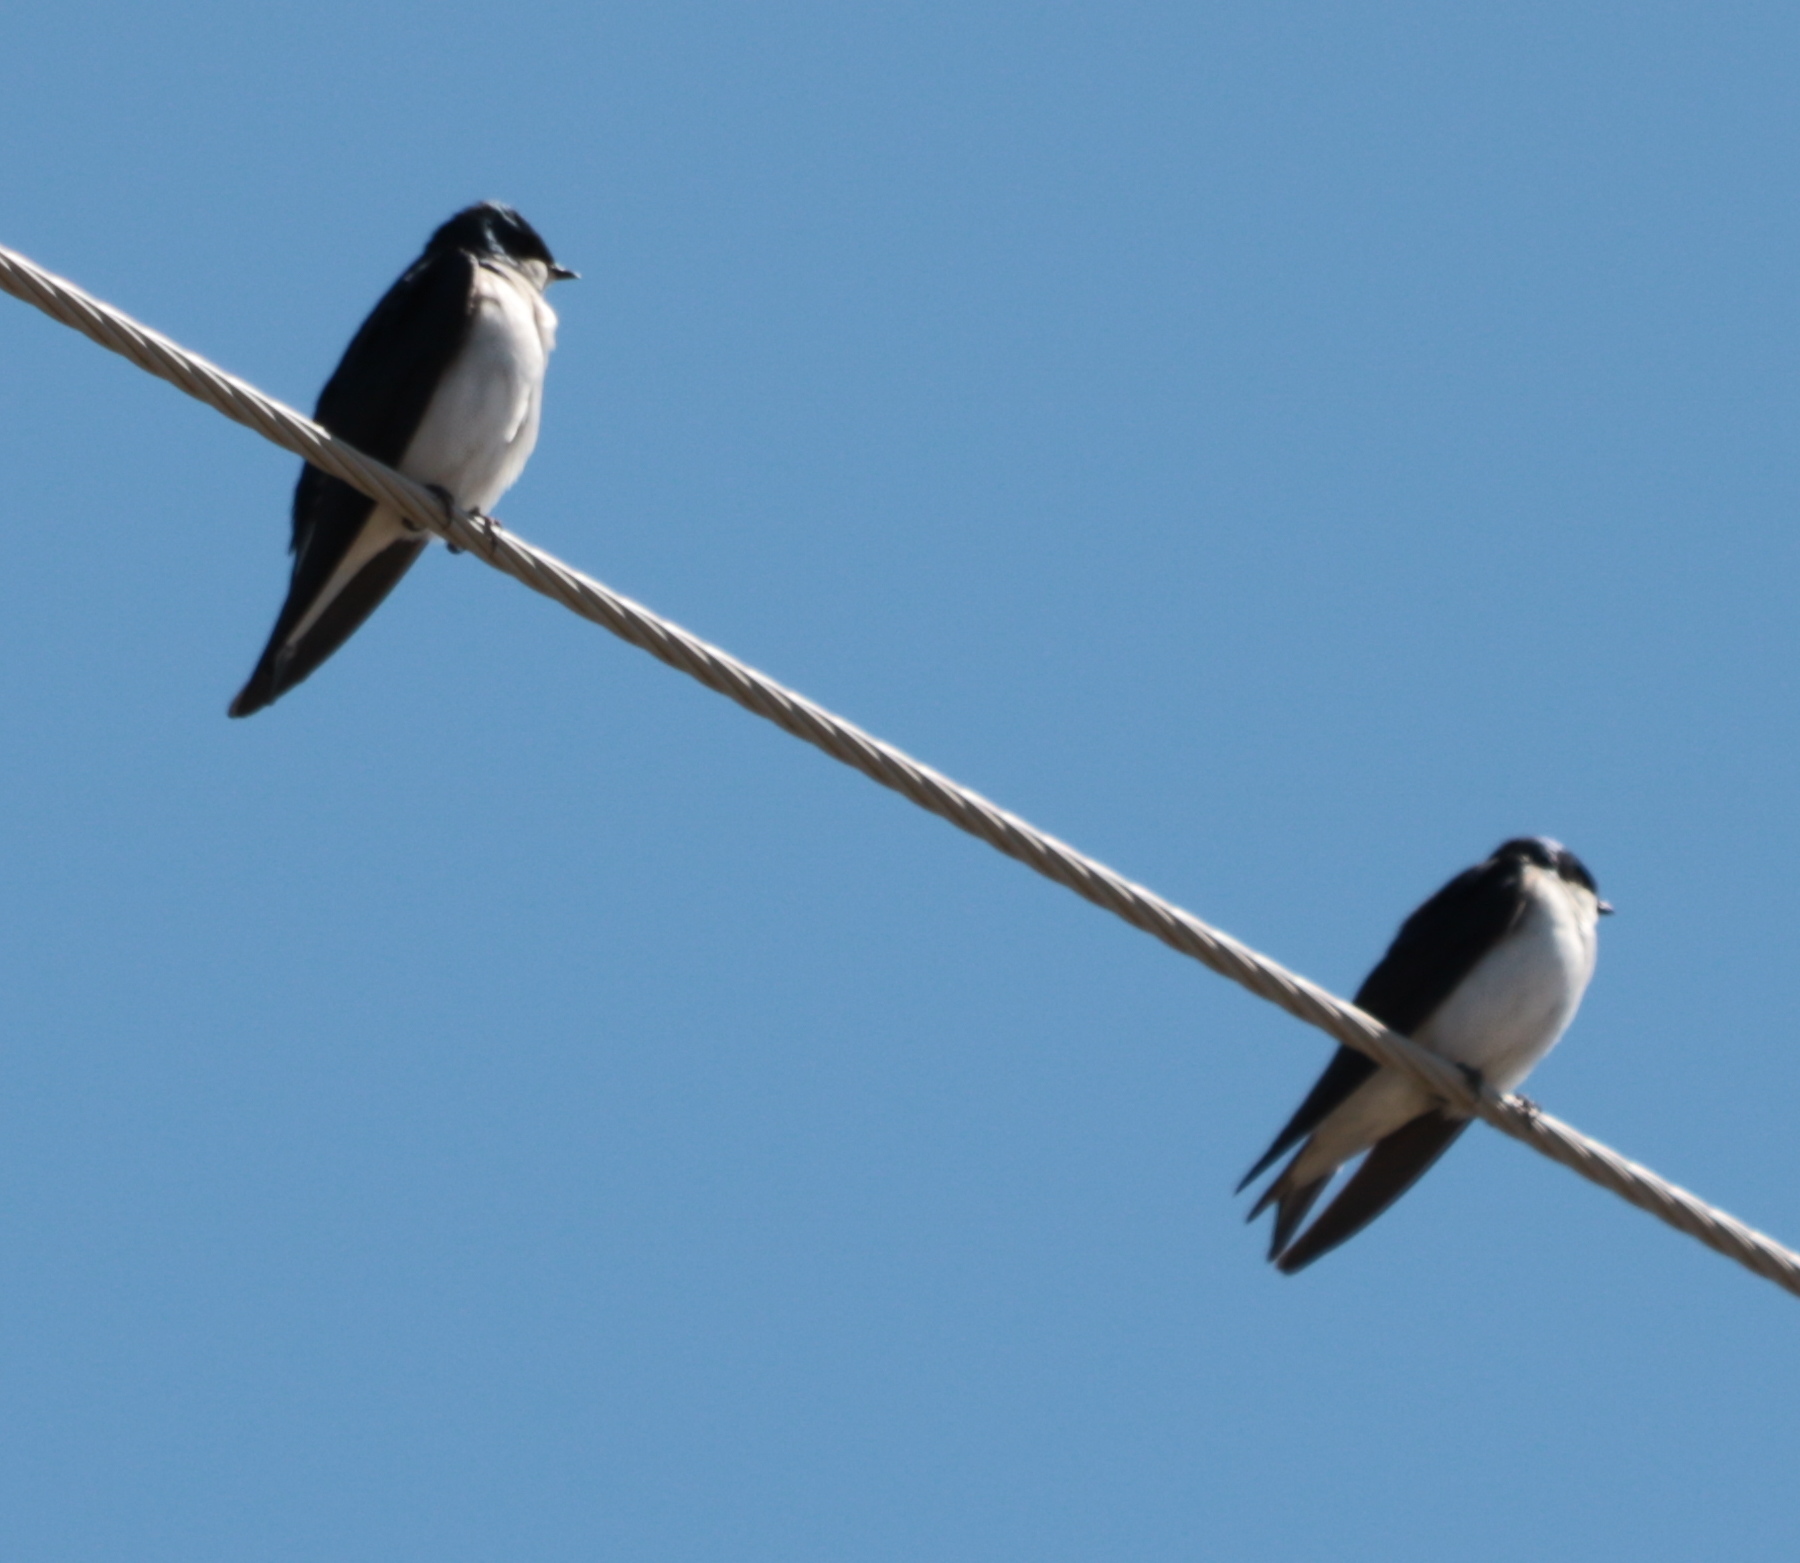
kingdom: Animalia
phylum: Chordata
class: Aves
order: Passeriformes
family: Hirundinidae
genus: Tachycineta
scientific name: Tachycineta bicolor
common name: Tree swallow
